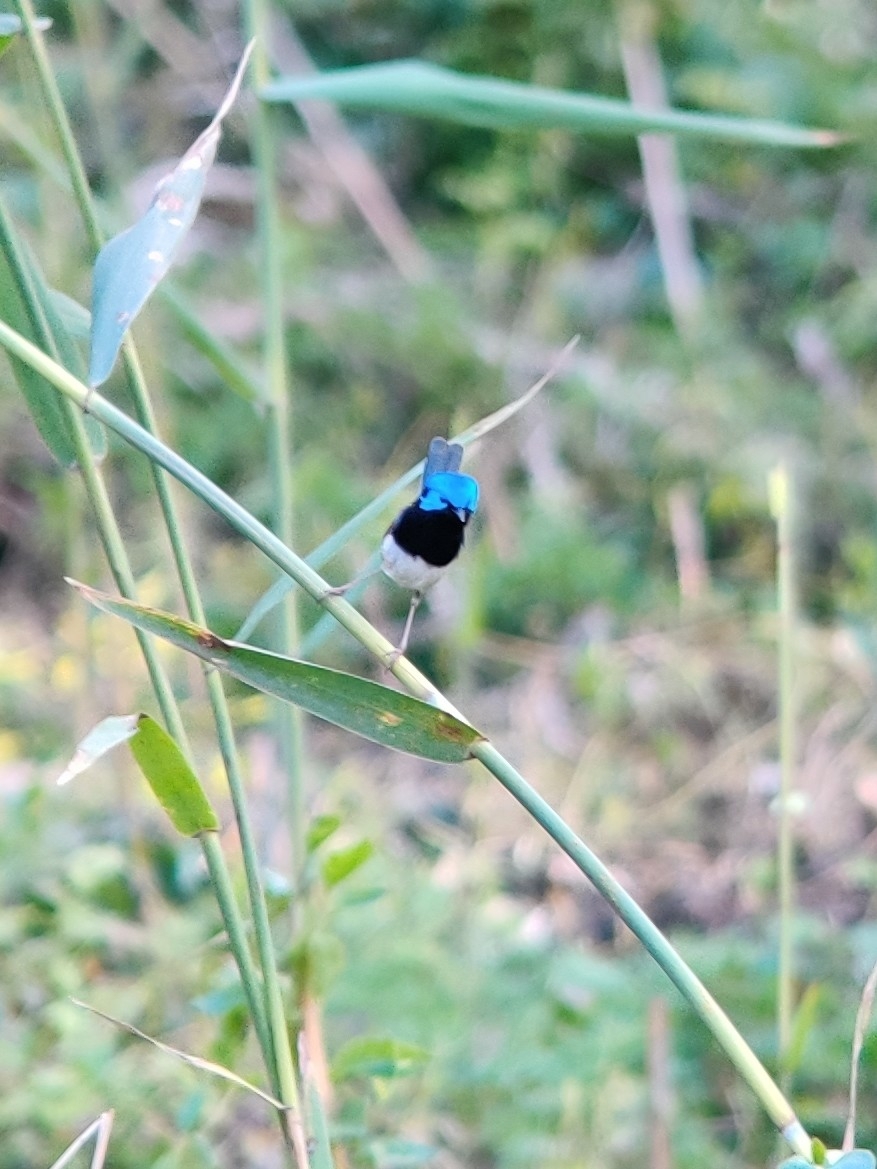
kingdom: Animalia
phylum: Chordata
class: Aves
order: Passeriformes
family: Maluridae
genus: Malurus
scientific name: Malurus lamberti
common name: Variegated fairywren
